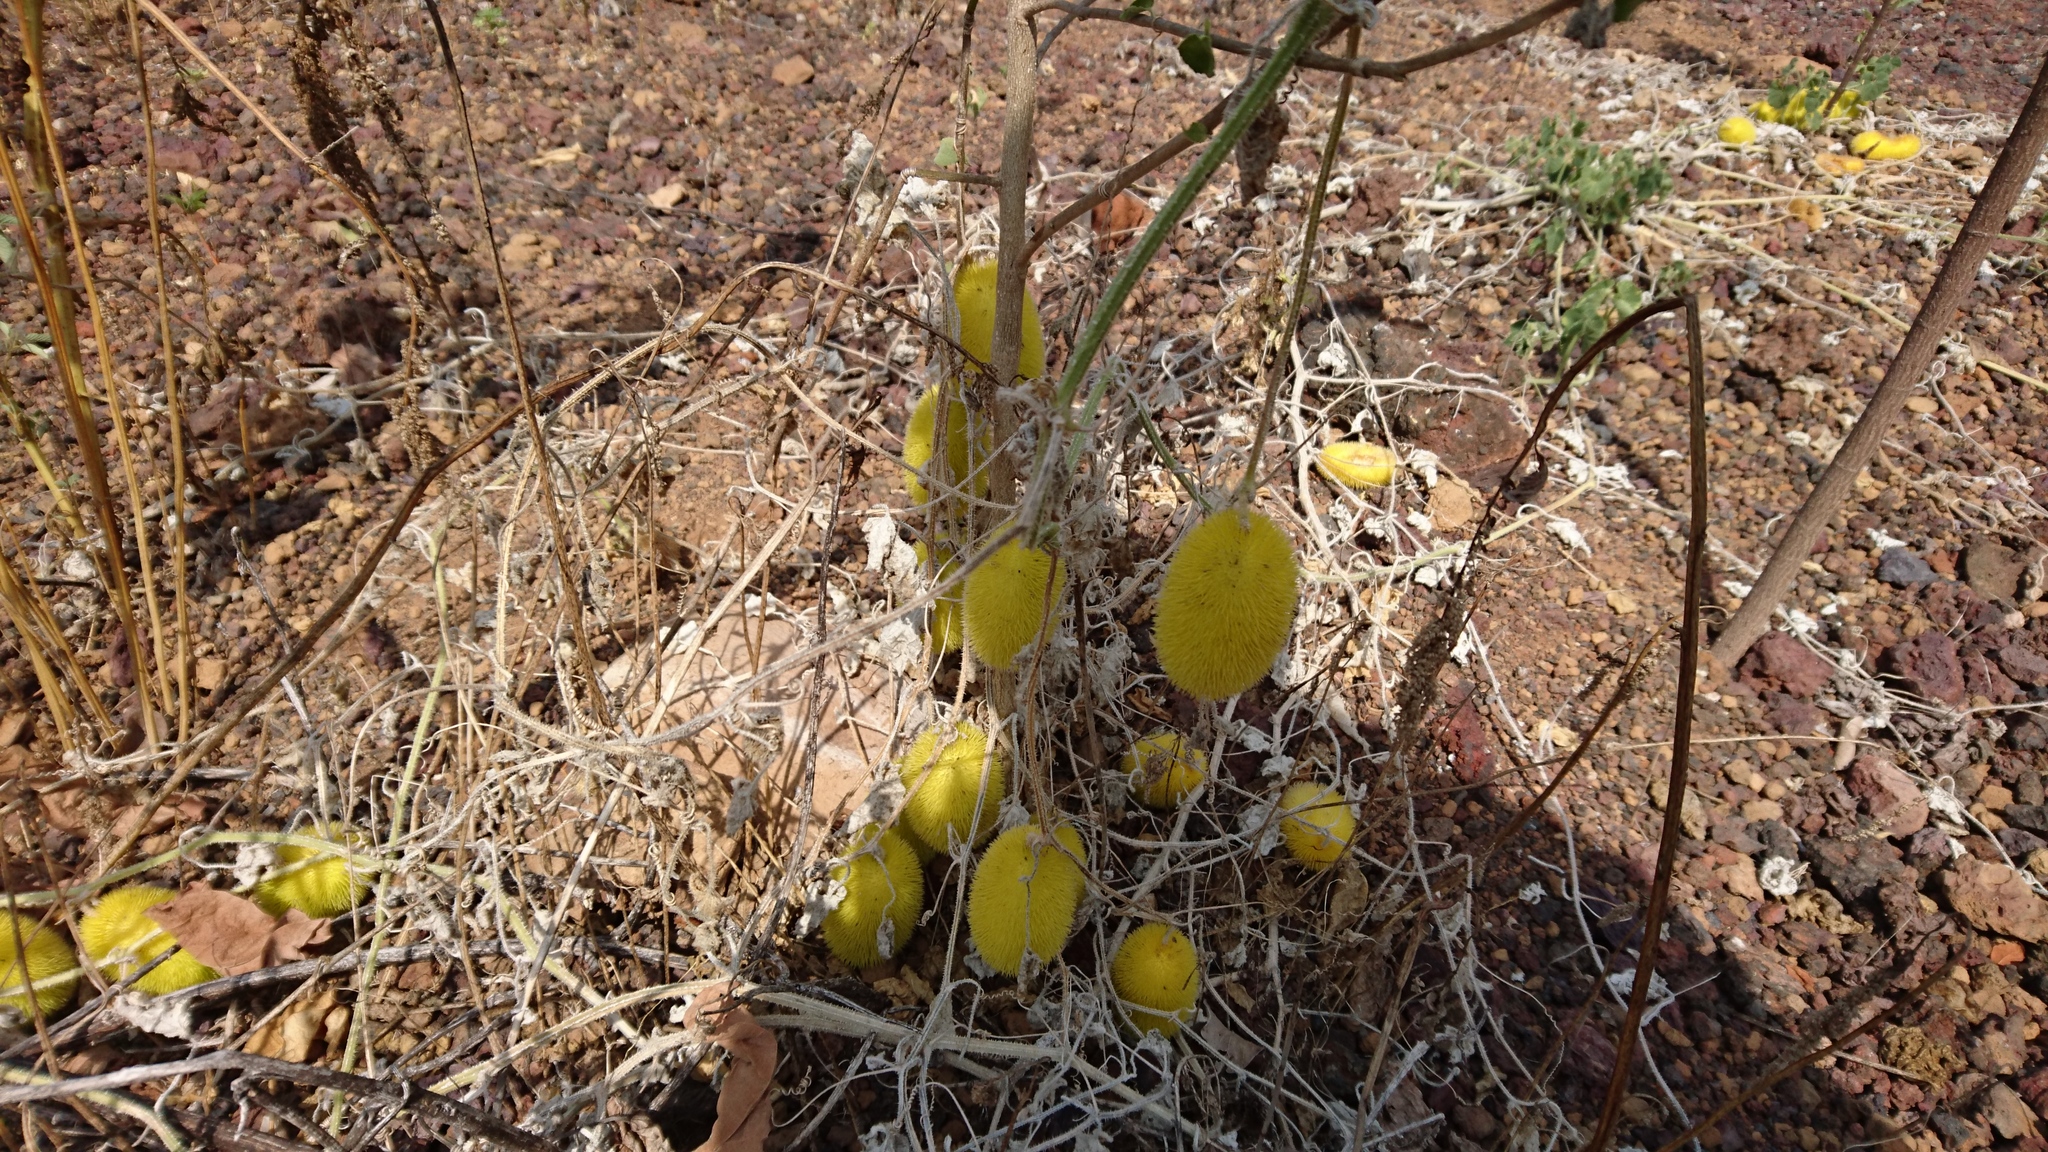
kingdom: Plantae
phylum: Tracheophyta
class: Magnoliopsida
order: Cucurbitales
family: Cucurbitaceae
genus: Cucumis
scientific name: Cucumis dipsaceus
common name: Hedgehog gourd
